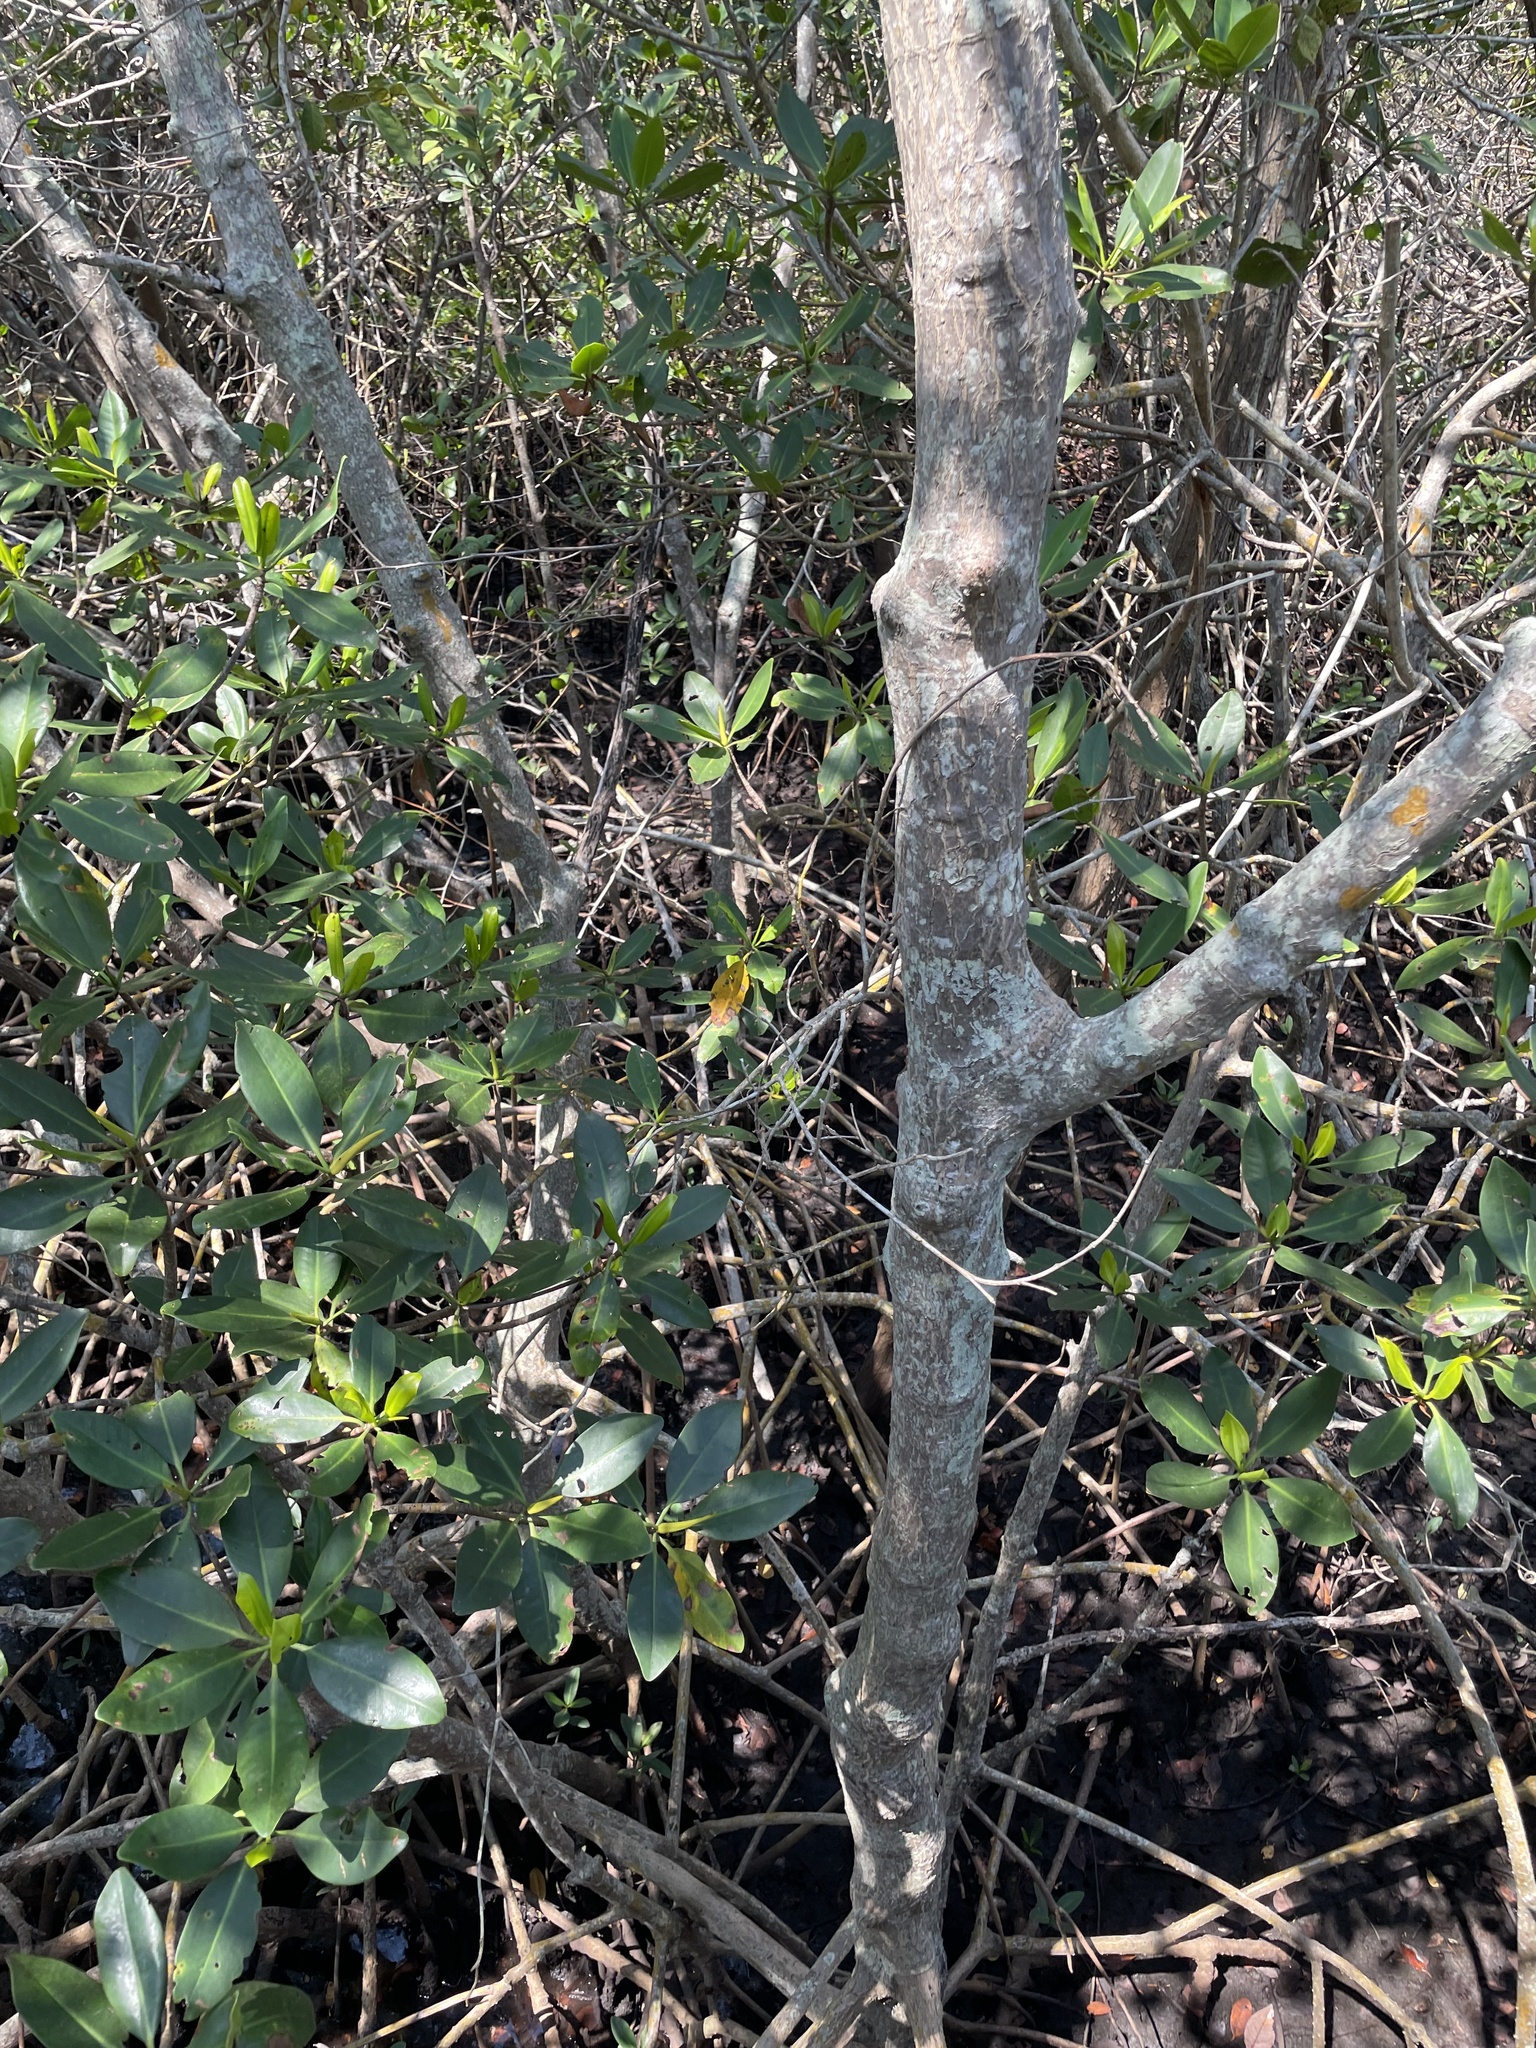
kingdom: Plantae
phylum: Tracheophyta
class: Magnoliopsida
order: Malpighiales
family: Rhizophoraceae
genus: Rhizophora
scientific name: Rhizophora mangle
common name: Red mangrove
